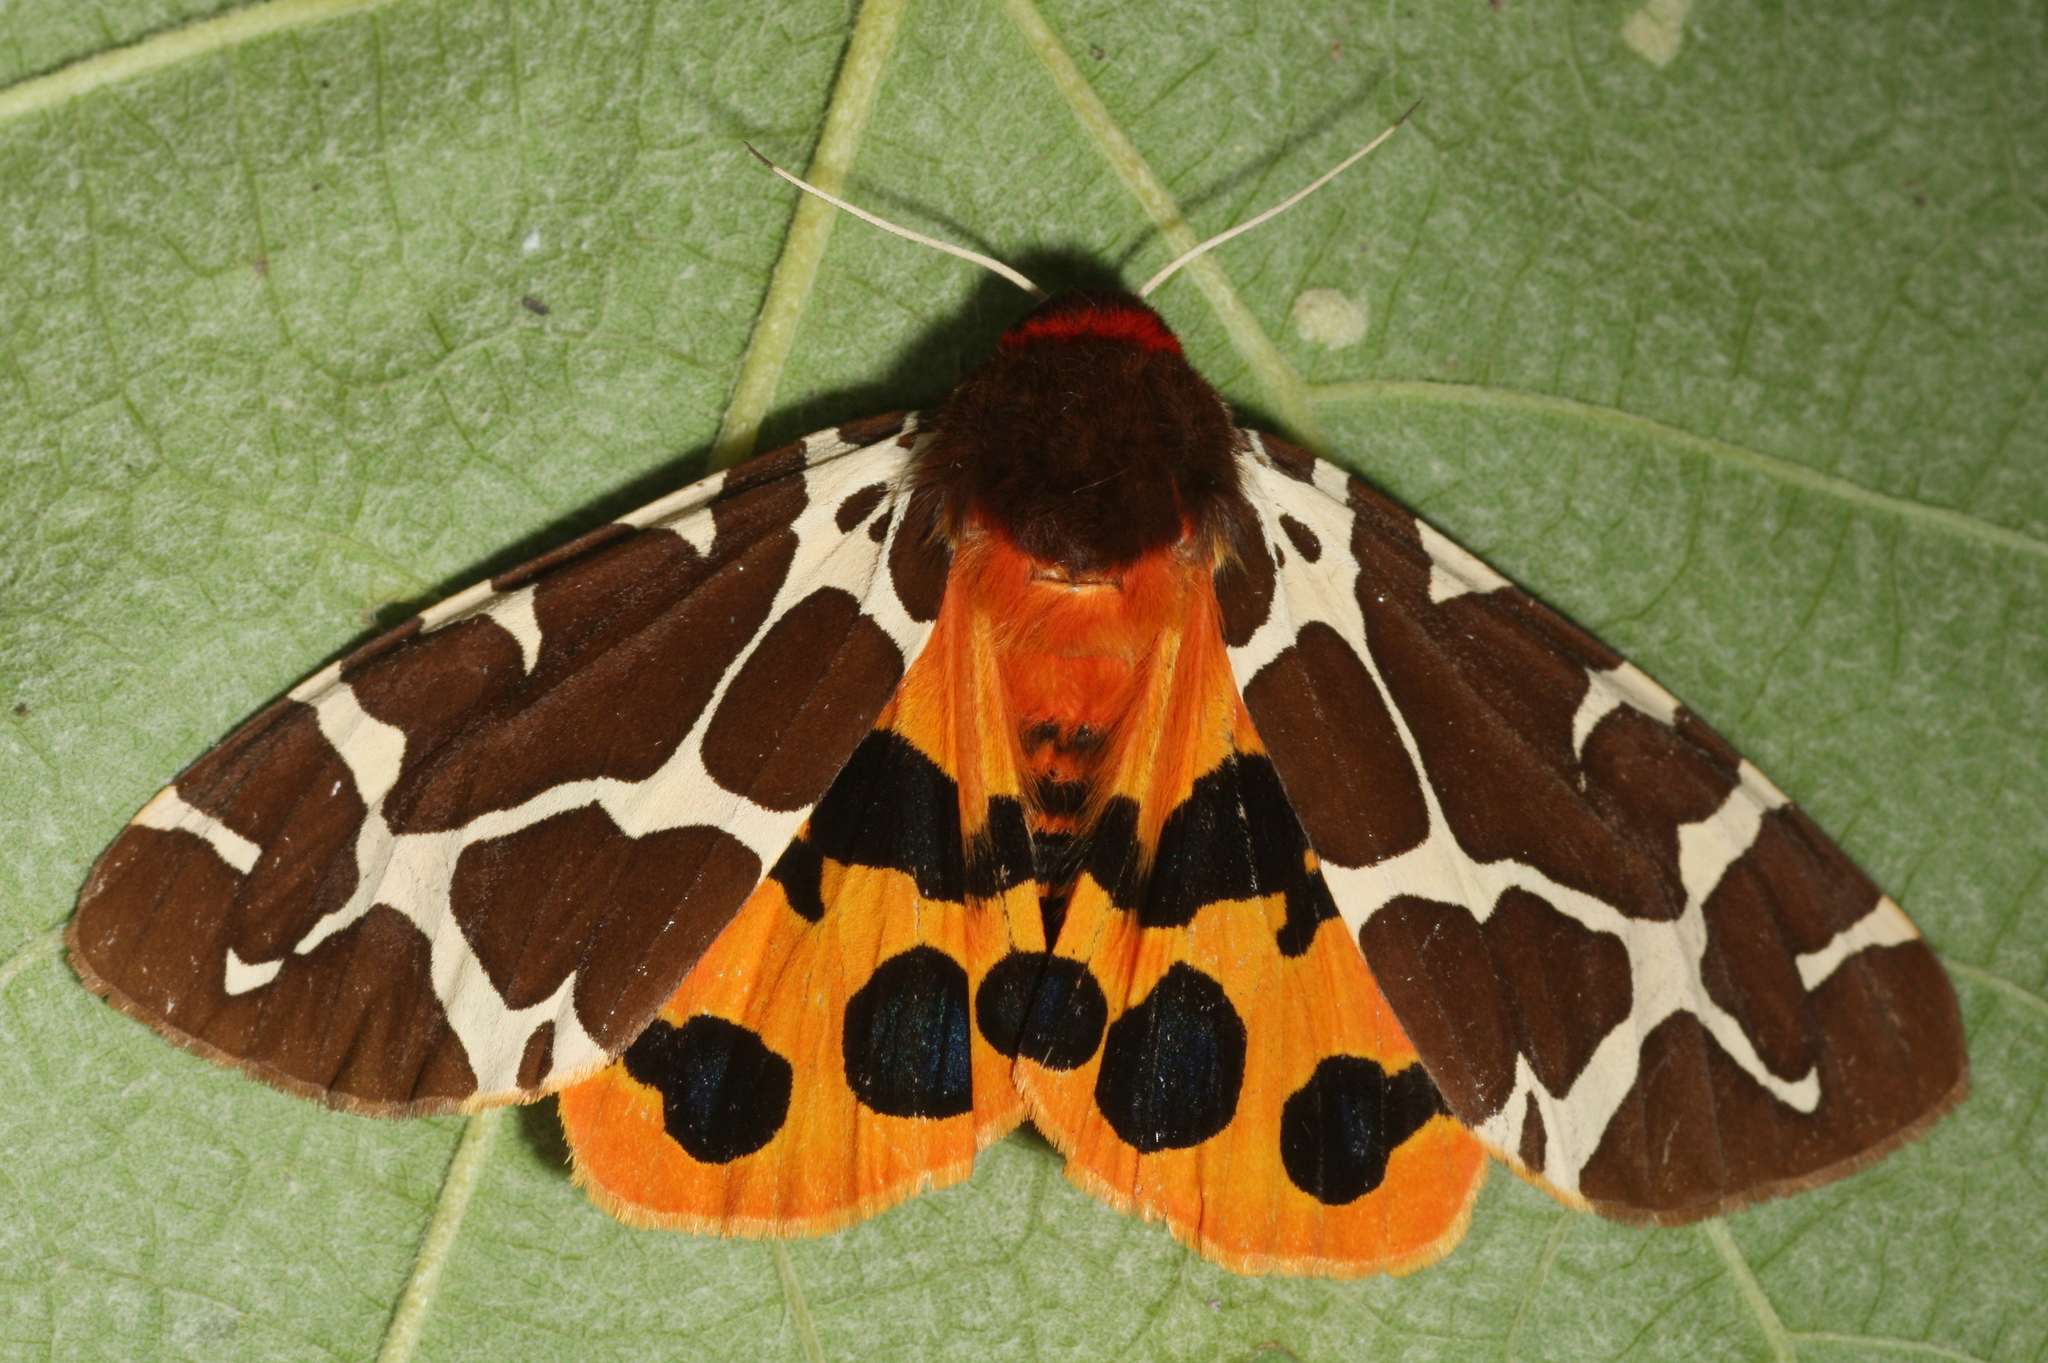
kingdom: Animalia
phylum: Arthropoda
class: Insecta
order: Lepidoptera
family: Erebidae
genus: Arctia
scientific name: Arctia caja
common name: Garden tiger
